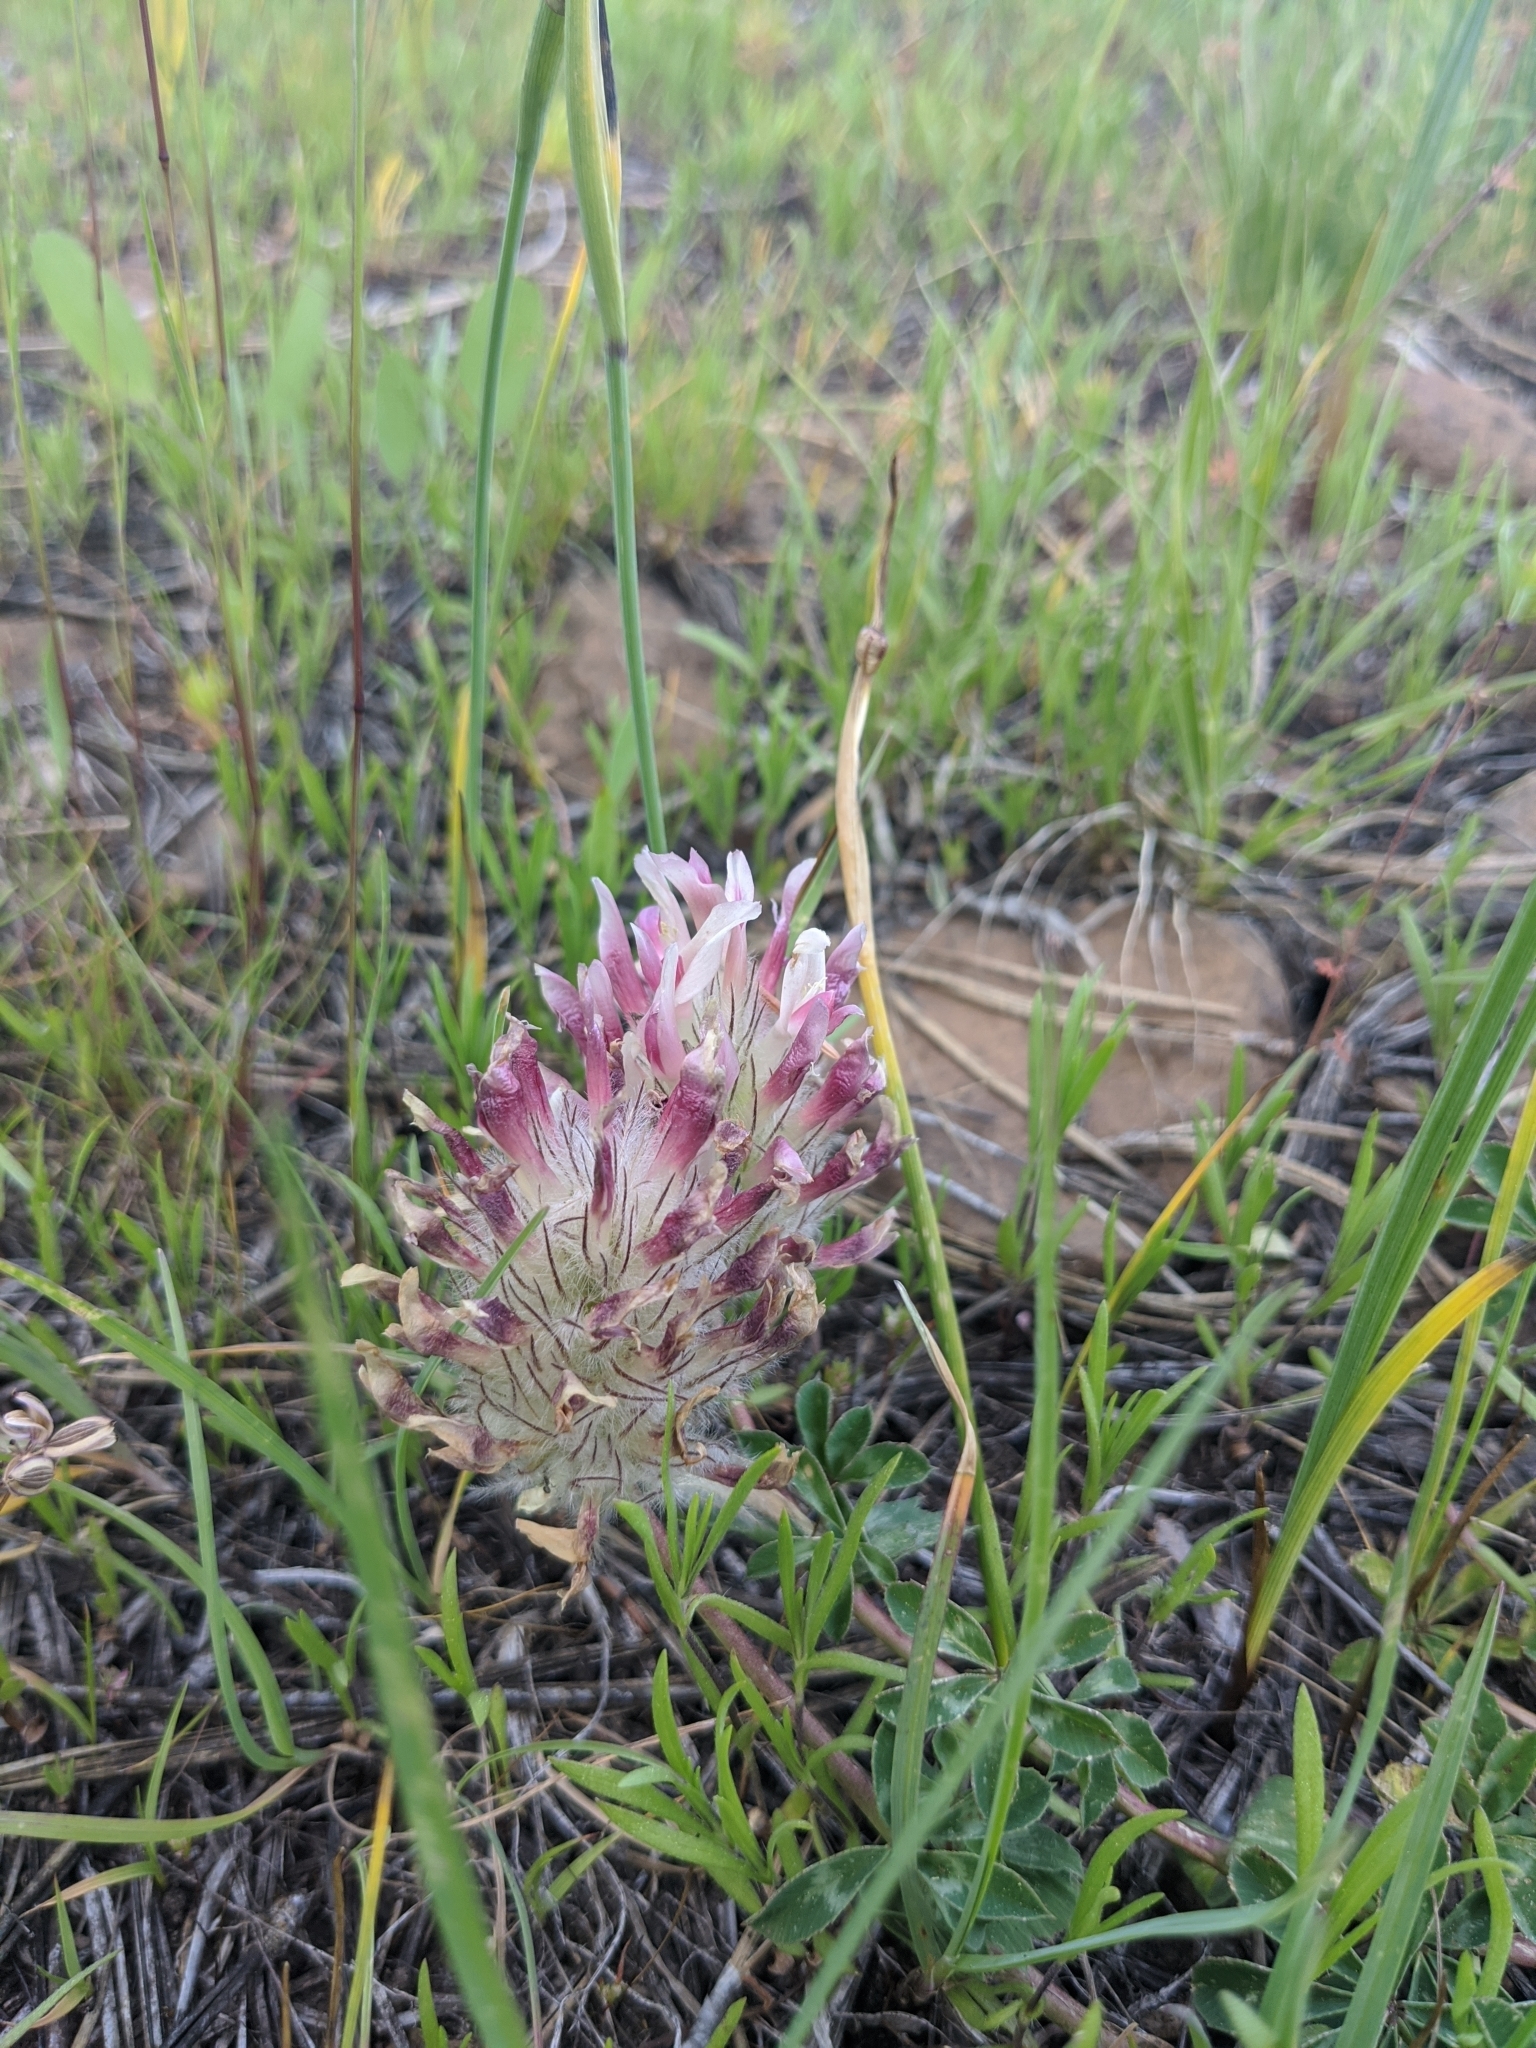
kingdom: Plantae
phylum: Tracheophyta
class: Magnoliopsida
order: Fabales
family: Fabaceae
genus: Trifolium
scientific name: Trifolium macrocephalum
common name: Large-head clover
